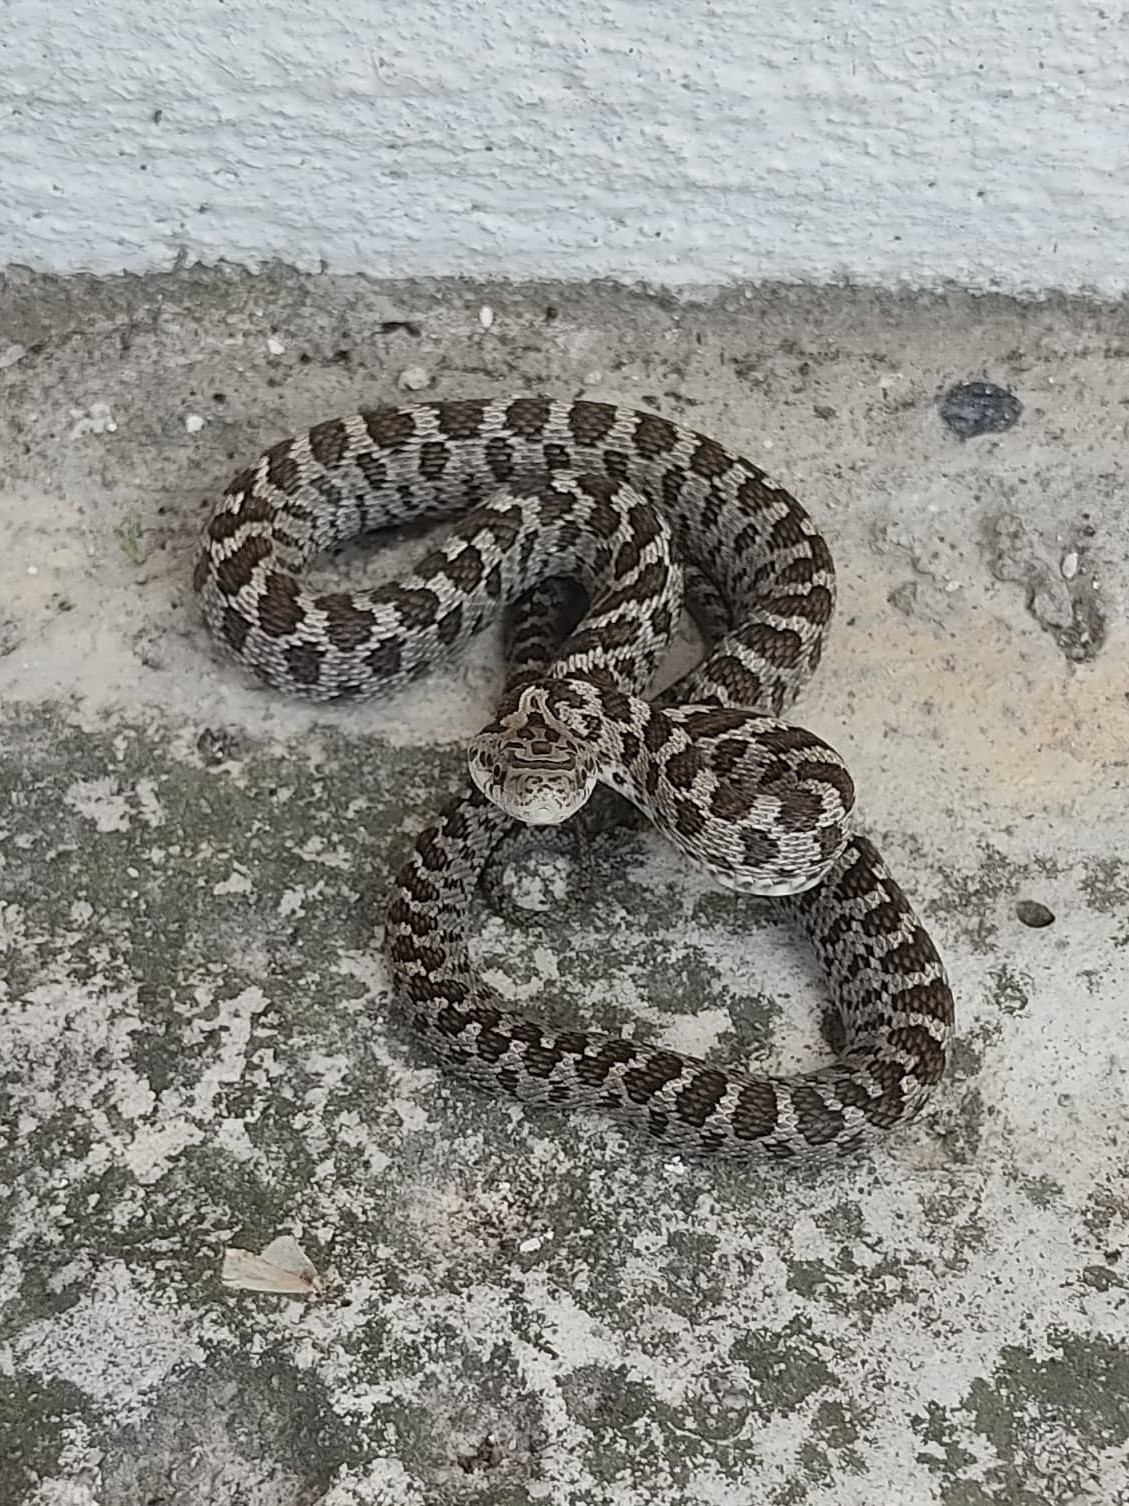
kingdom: Animalia
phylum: Chordata
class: Squamata
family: Colubridae
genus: Senticolis
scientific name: Senticolis triaspis
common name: Green rat snake
